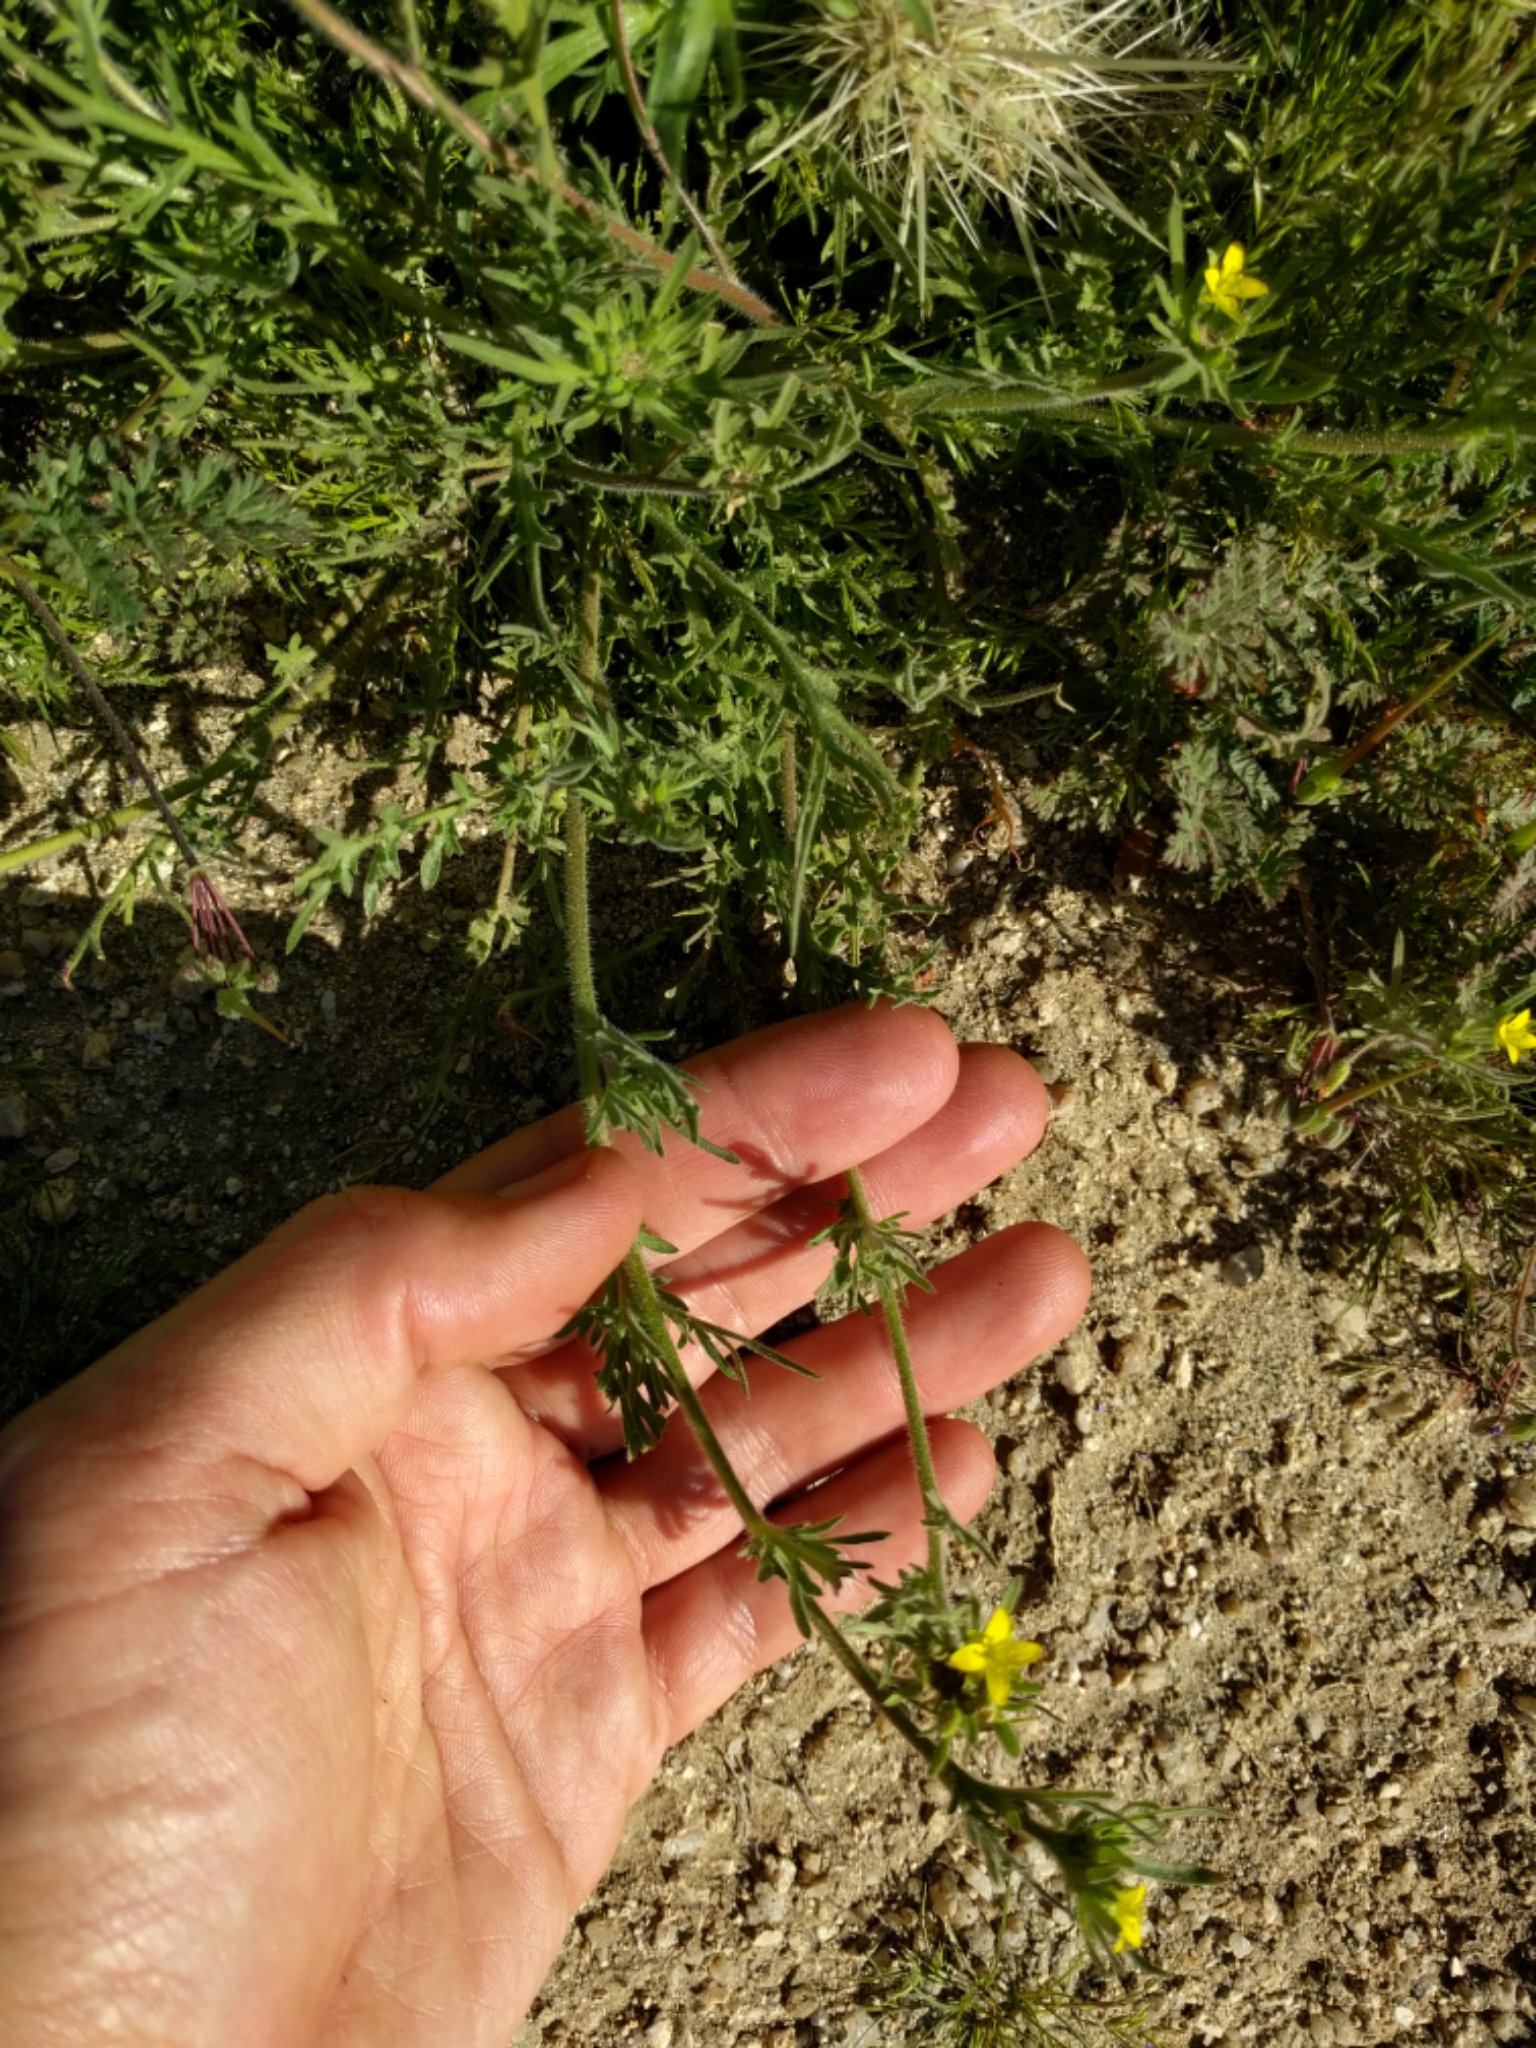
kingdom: Plantae
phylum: Tracheophyta
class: Magnoliopsida
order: Brassicales
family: Brassicaceae
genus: Tropidocarpum
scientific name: Tropidocarpum gracile
